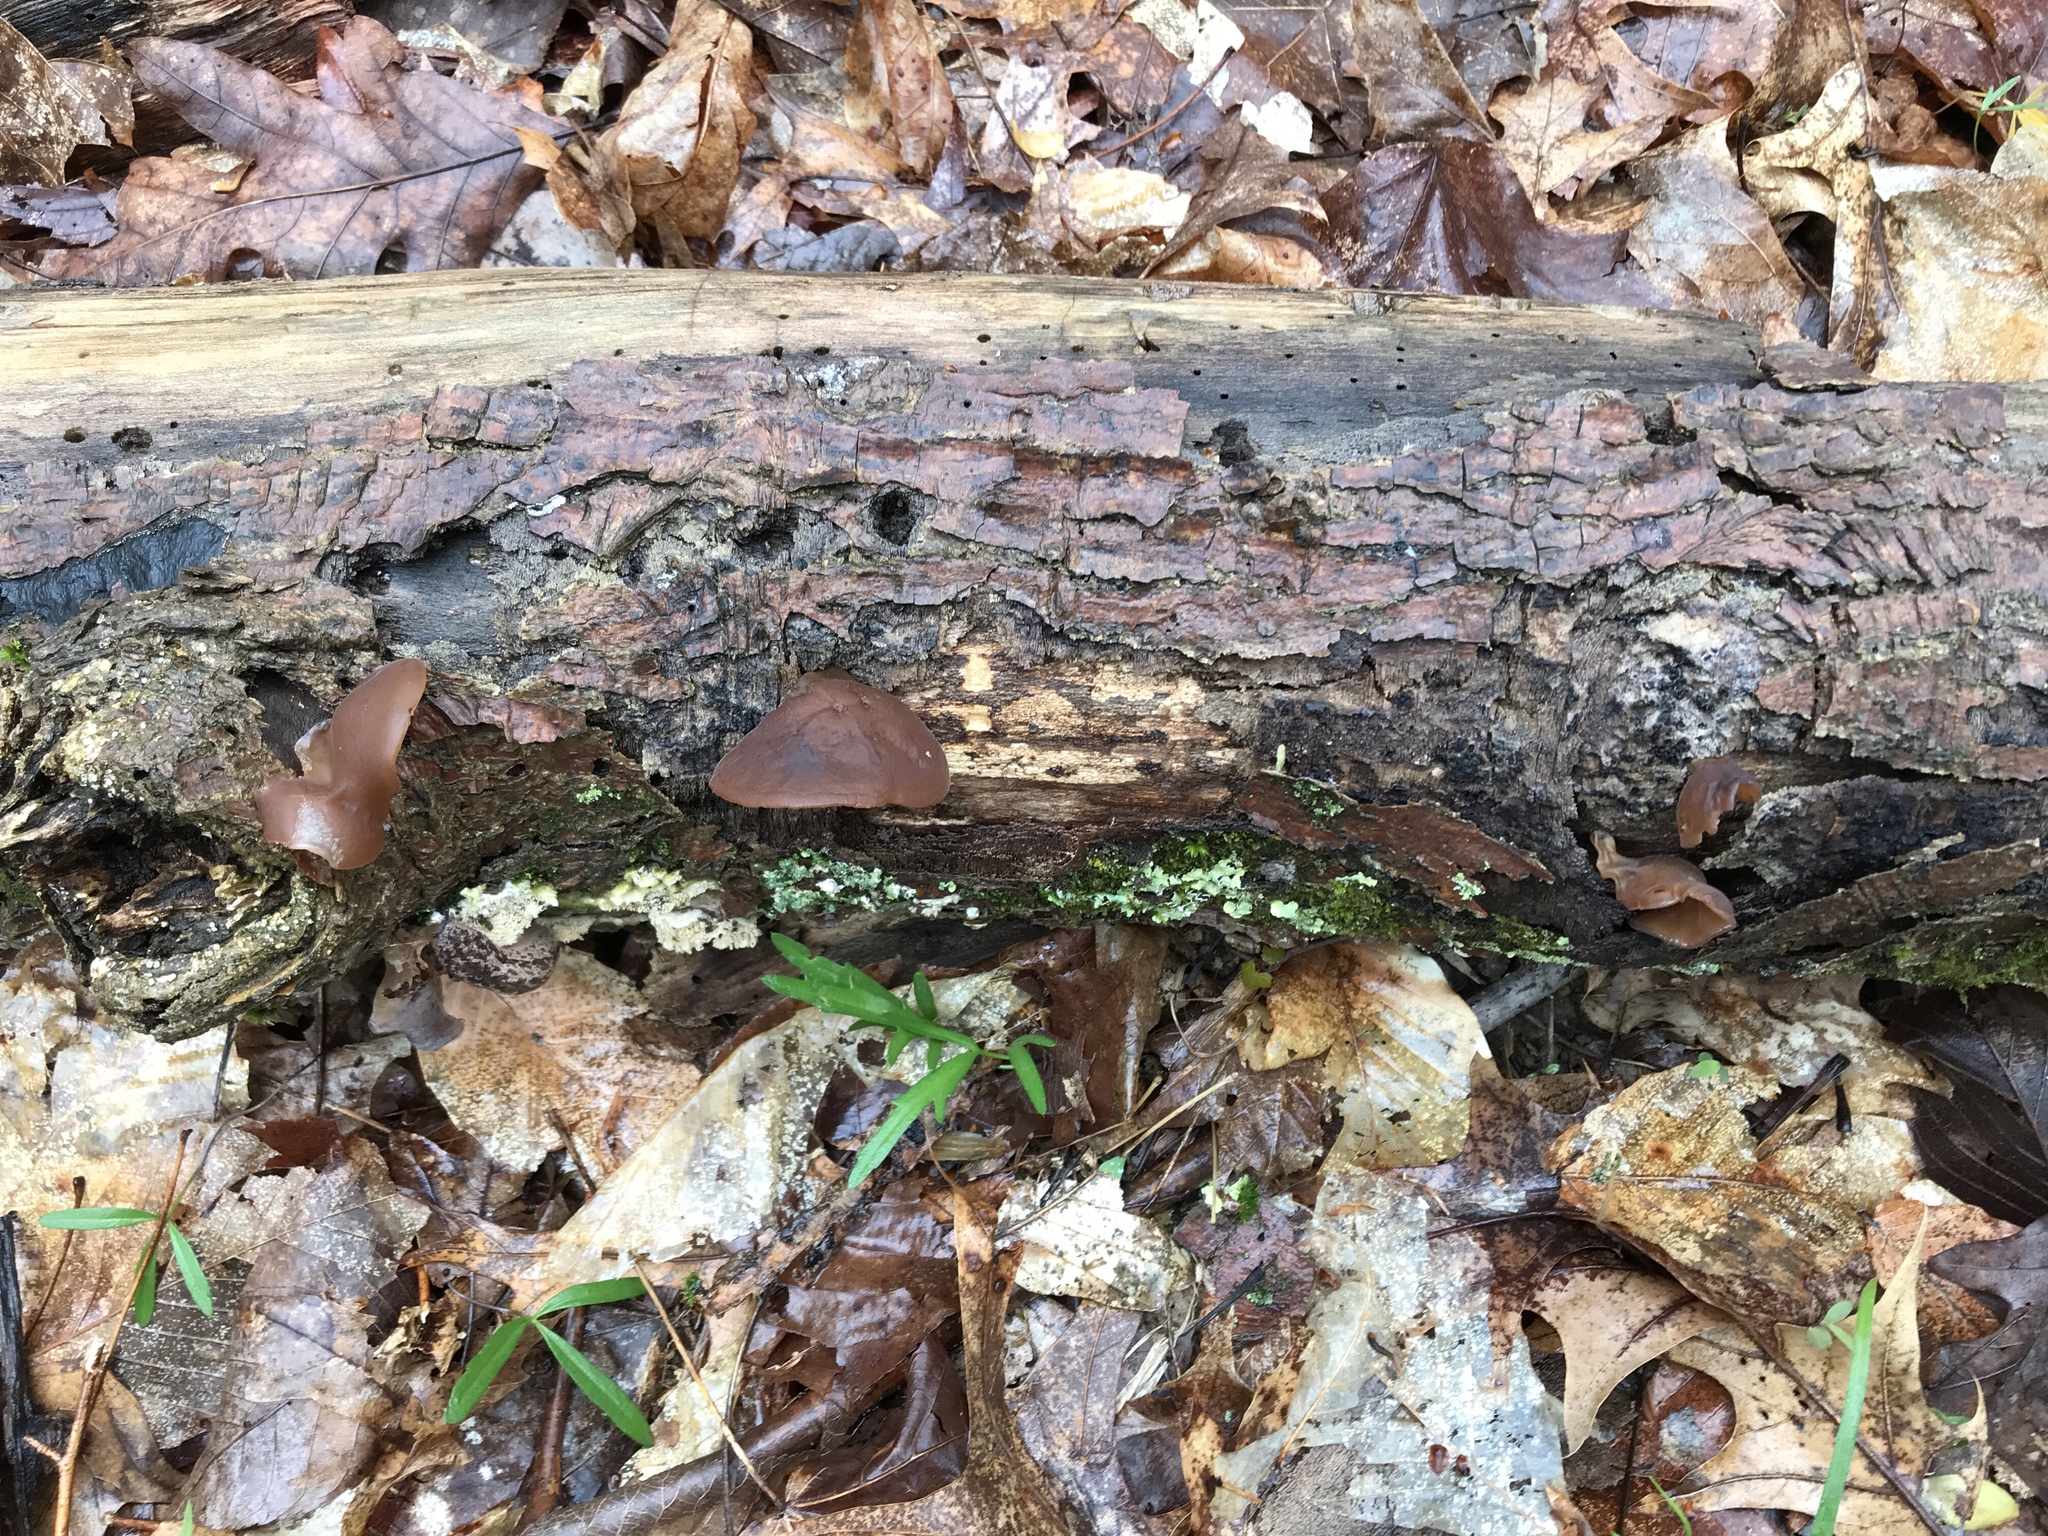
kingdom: Fungi
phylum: Basidiomycota
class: Agaricomycetes
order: Auriculariales
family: Auriculariaceae
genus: Auricularia
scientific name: Auricularia angiospermarum
